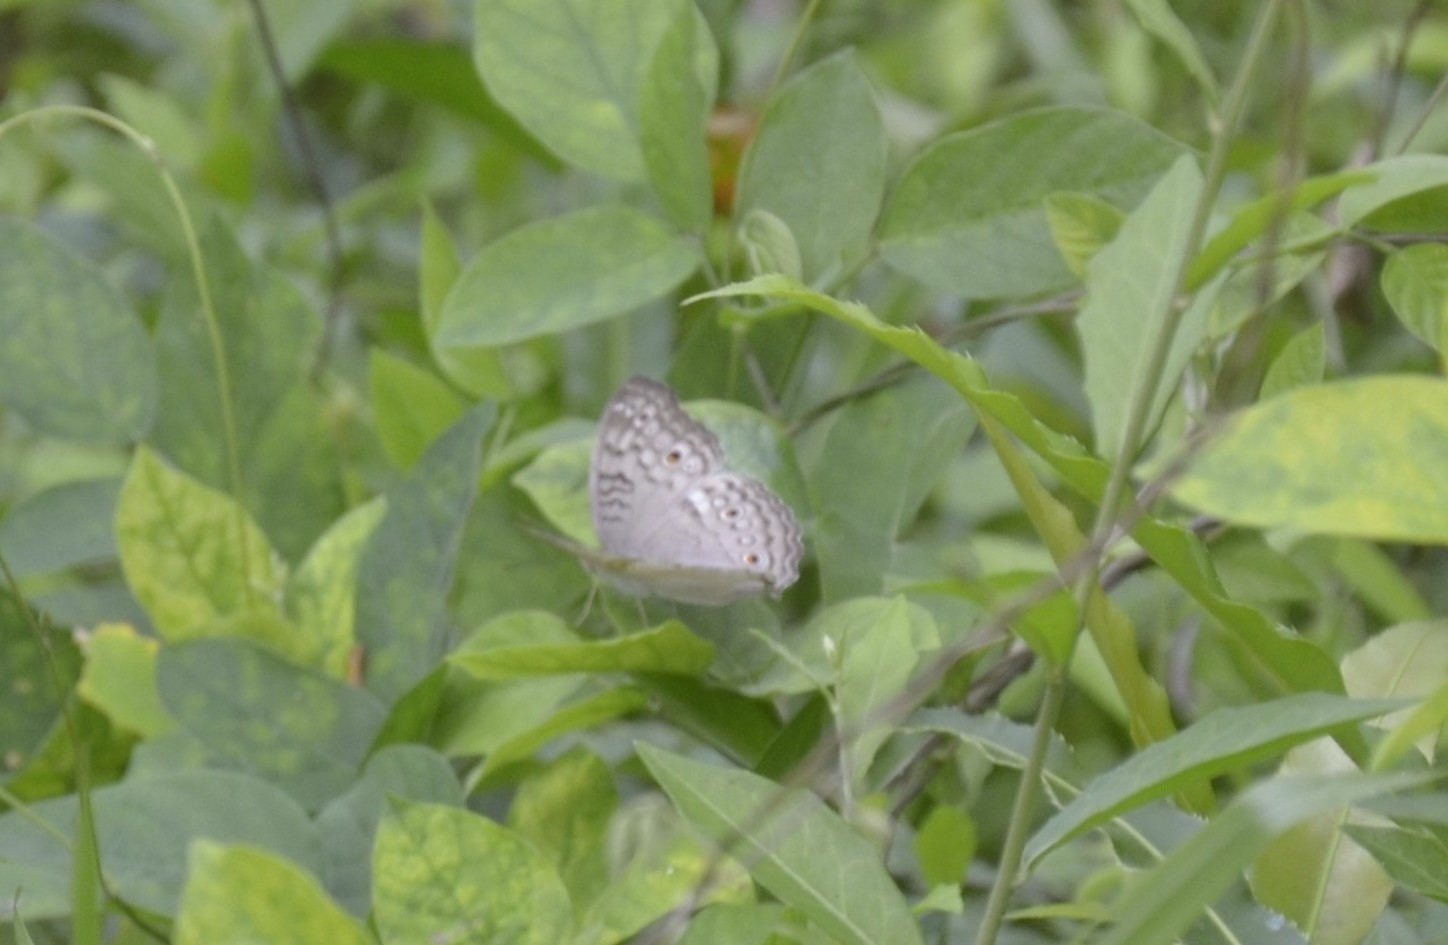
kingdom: Animalia
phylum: Arthropoda
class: Insecta
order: Lepidoptera
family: Nymphalidae
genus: Junonia
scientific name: Junonia atlites
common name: Grey pansy
